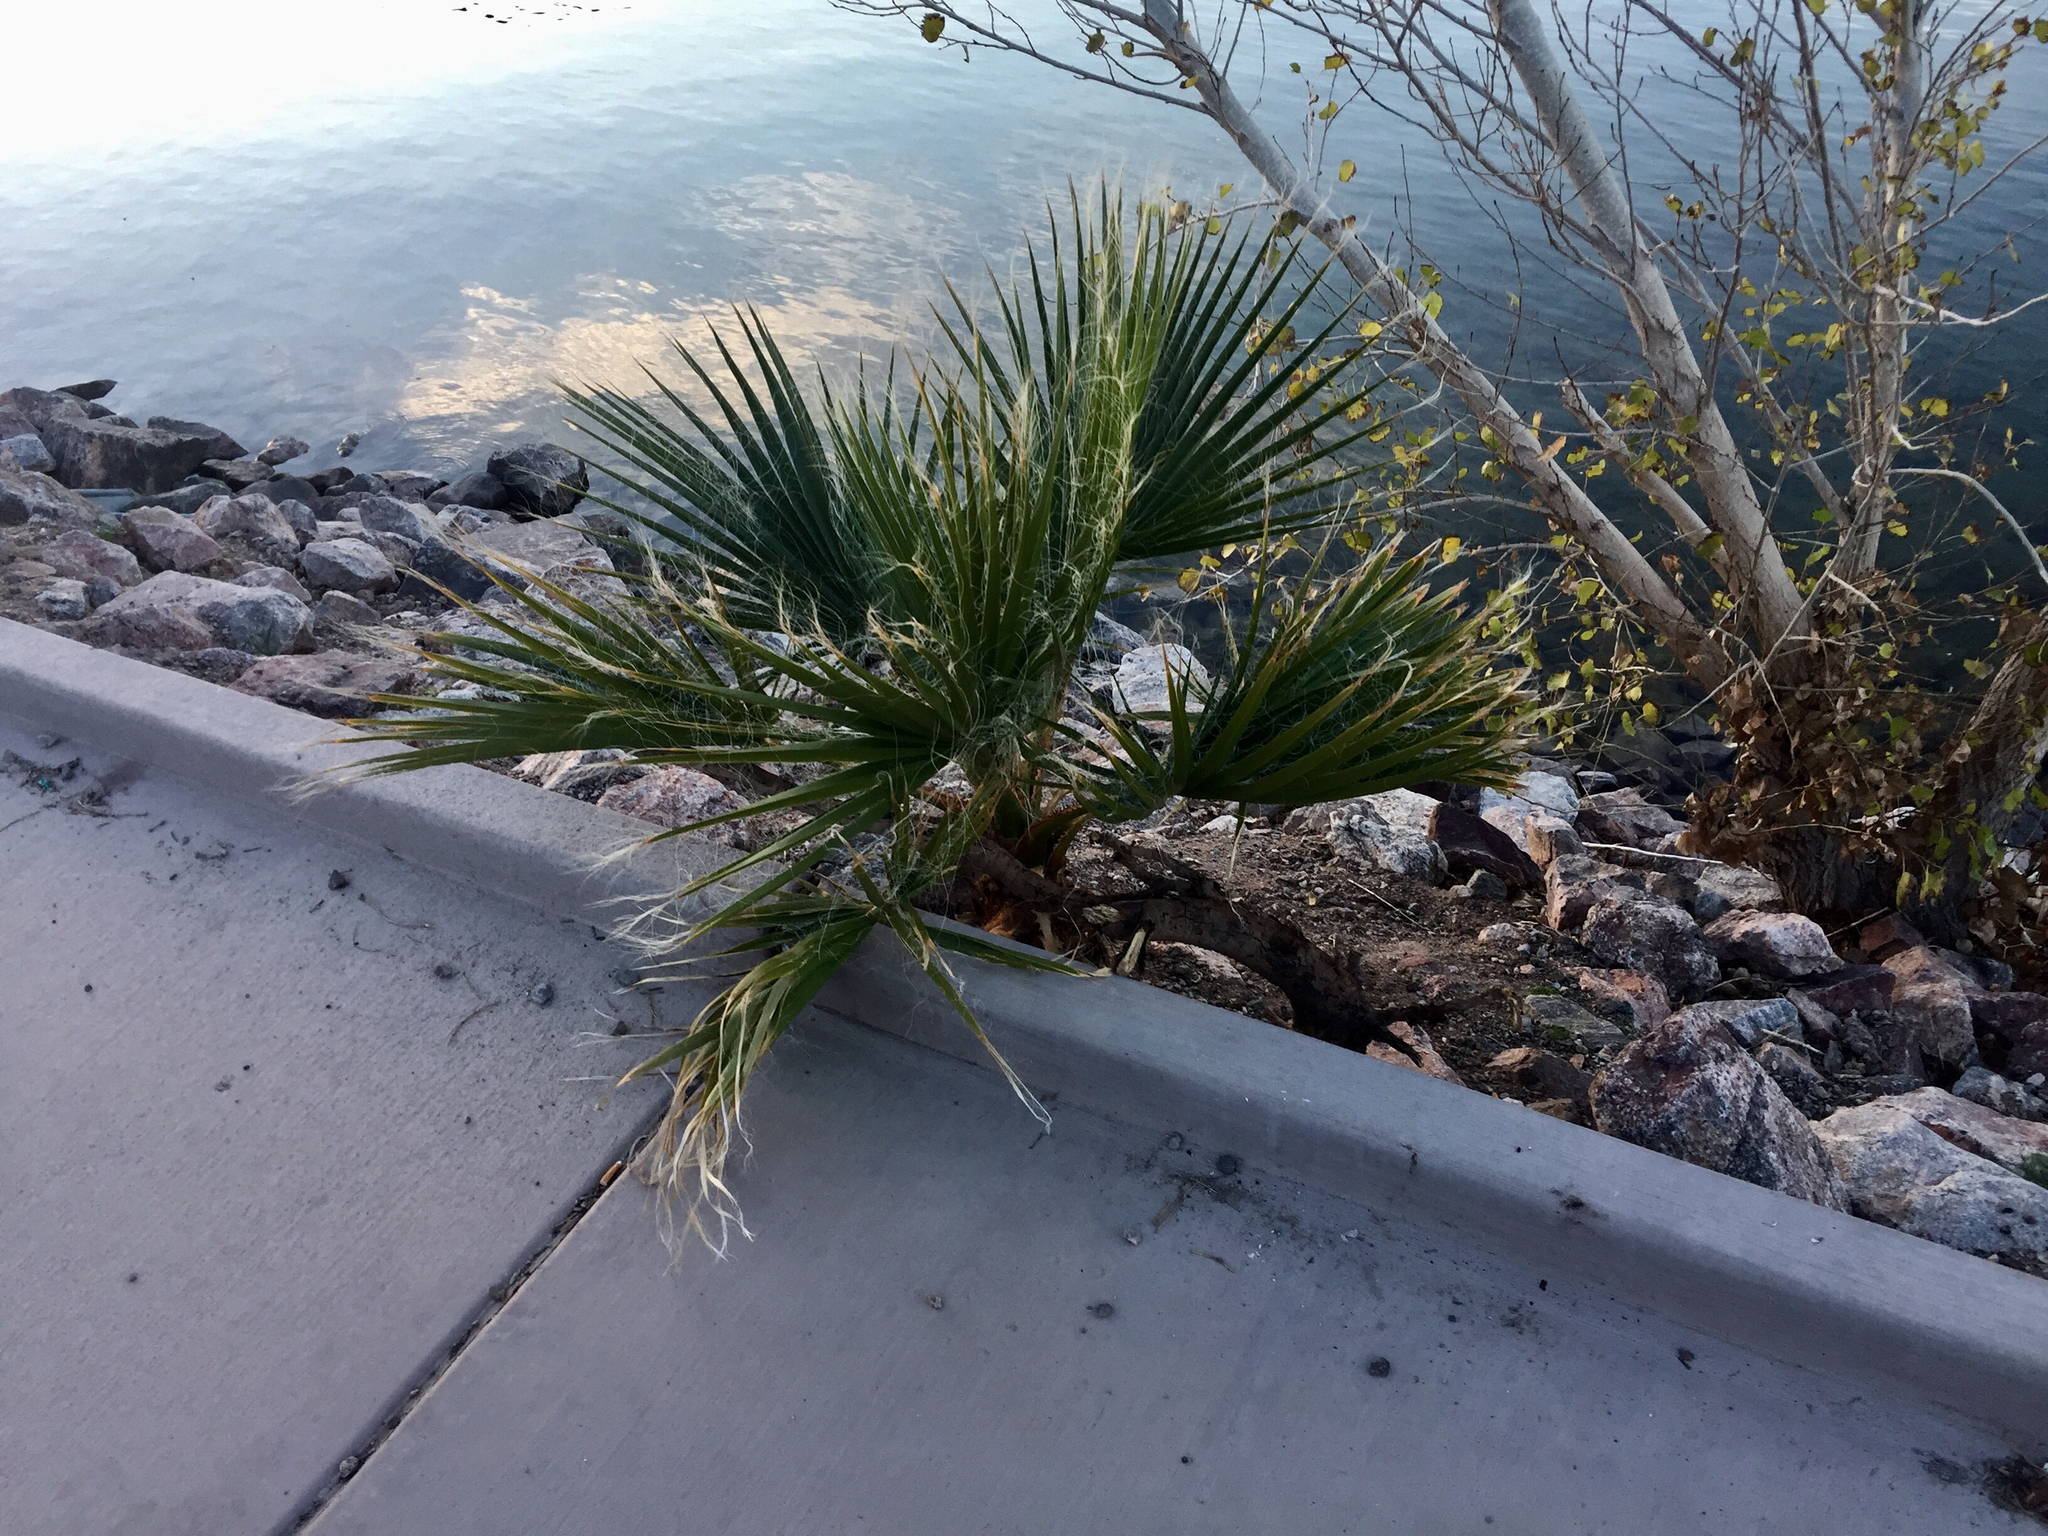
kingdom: Plantae
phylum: Tracheophyta
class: Liliopsida
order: Arecales
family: Arecaceae
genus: Washingtonia
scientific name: Washingtonia filifera
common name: California fan palm
